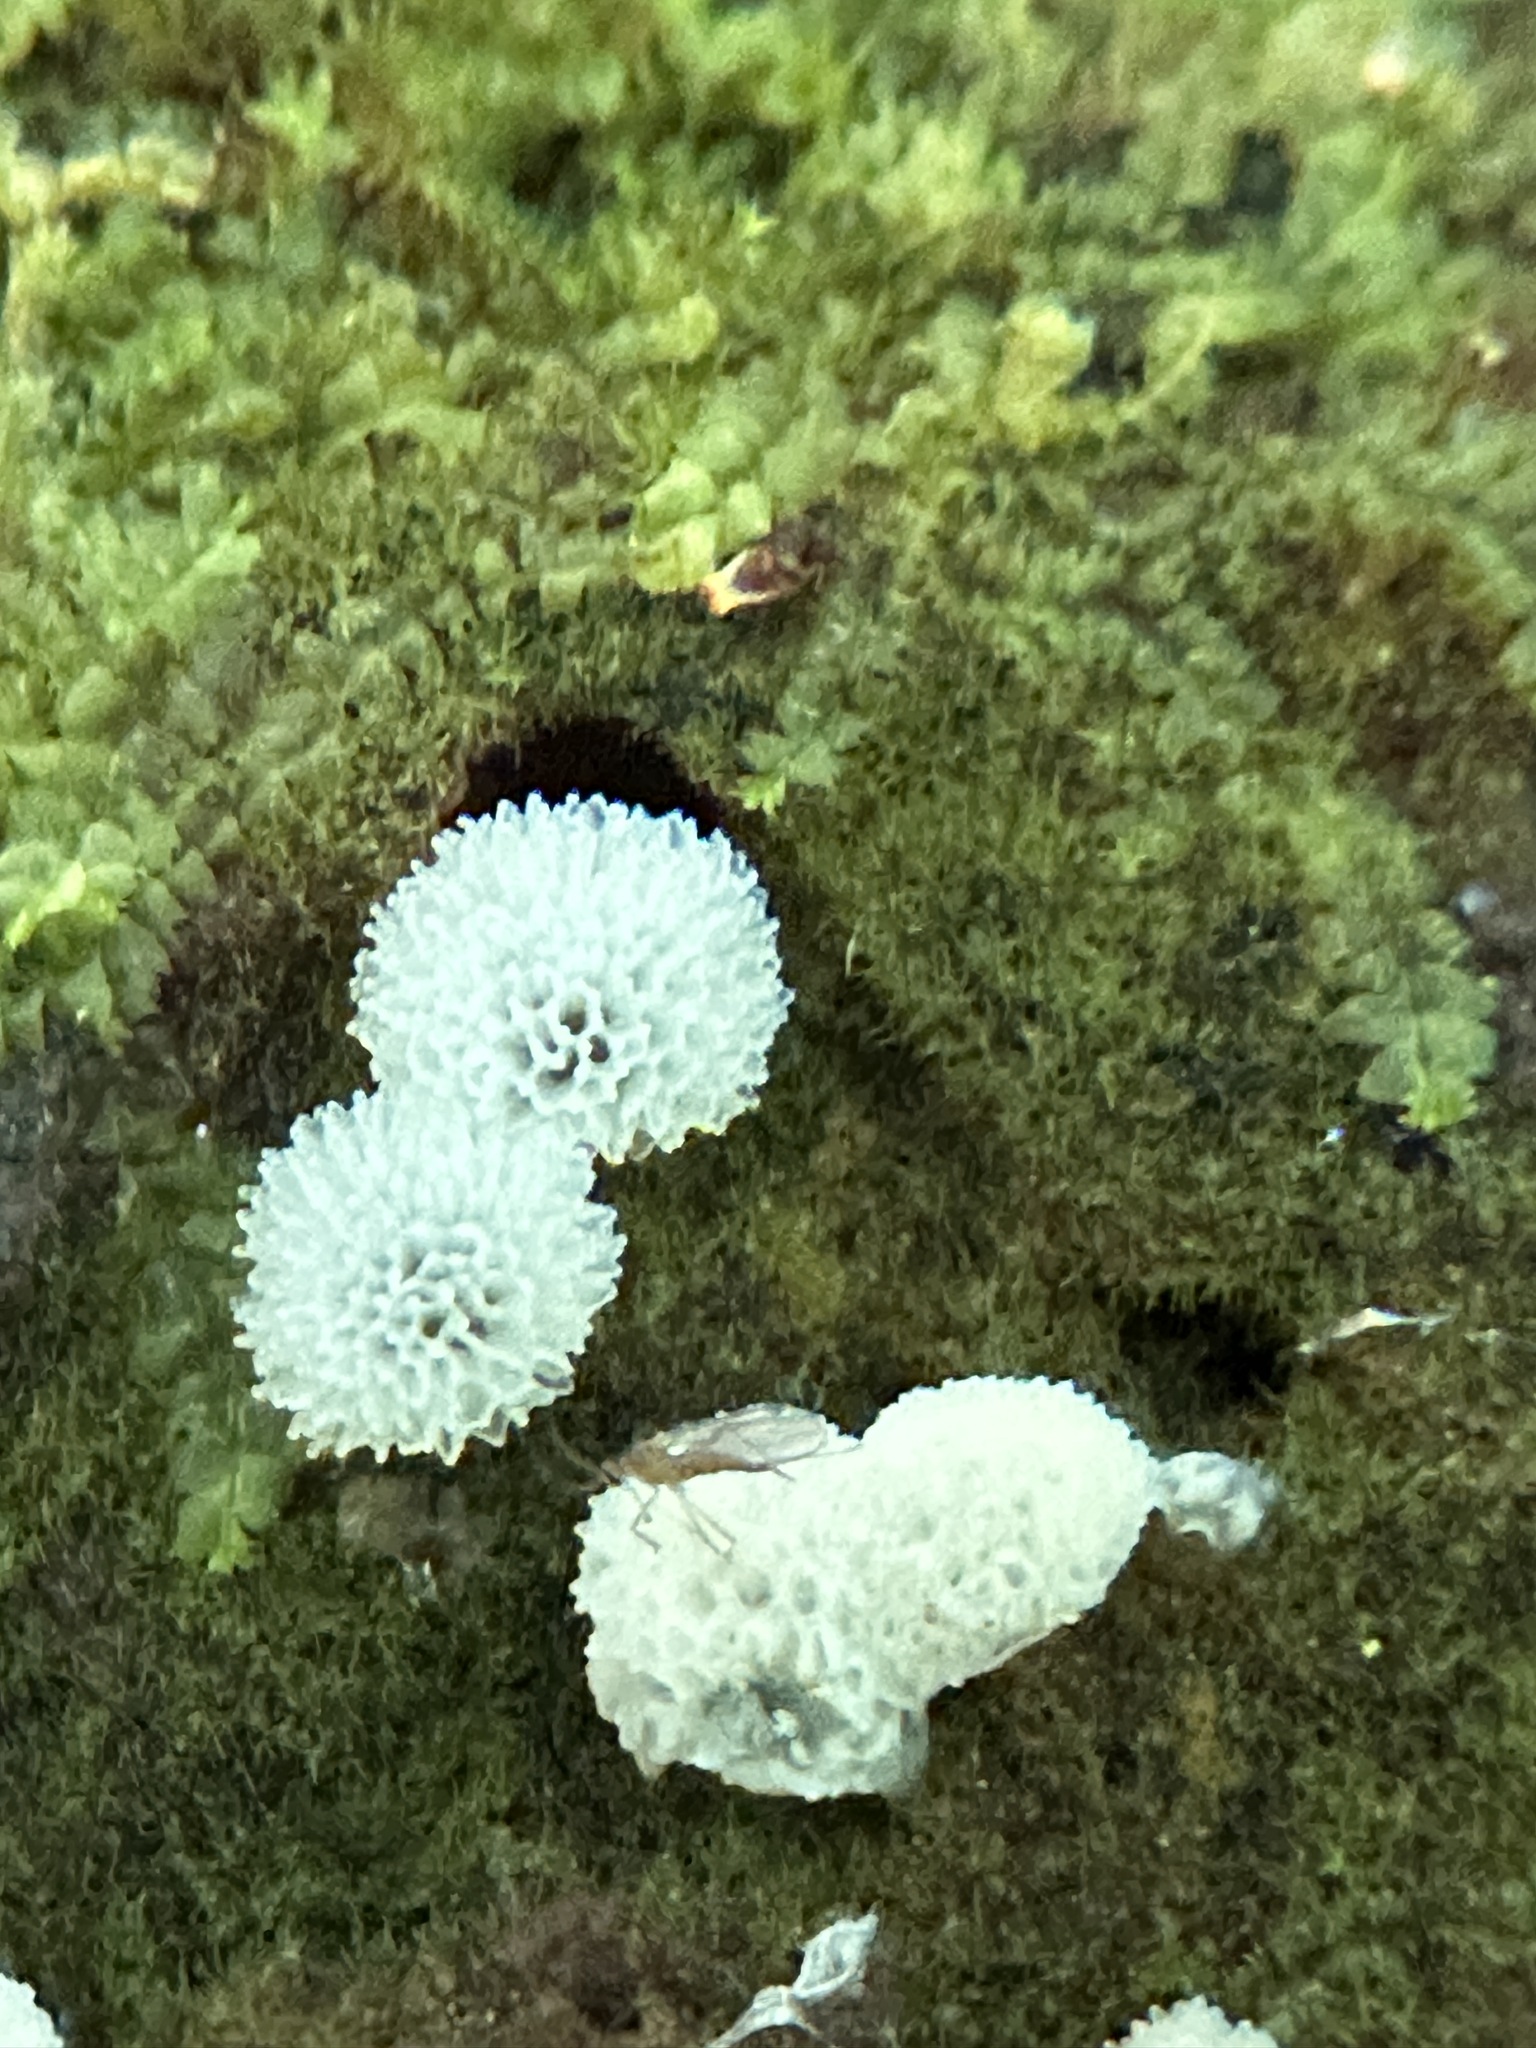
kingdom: Protozoa
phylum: Mycetozoa
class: Protosteliomycetes
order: Ceratiomyxales
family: Ceratiomyxaceae
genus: Ceratiomyxa
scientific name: Ceratiomyxa fruticulosa
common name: Honeycomb coral slime mold
